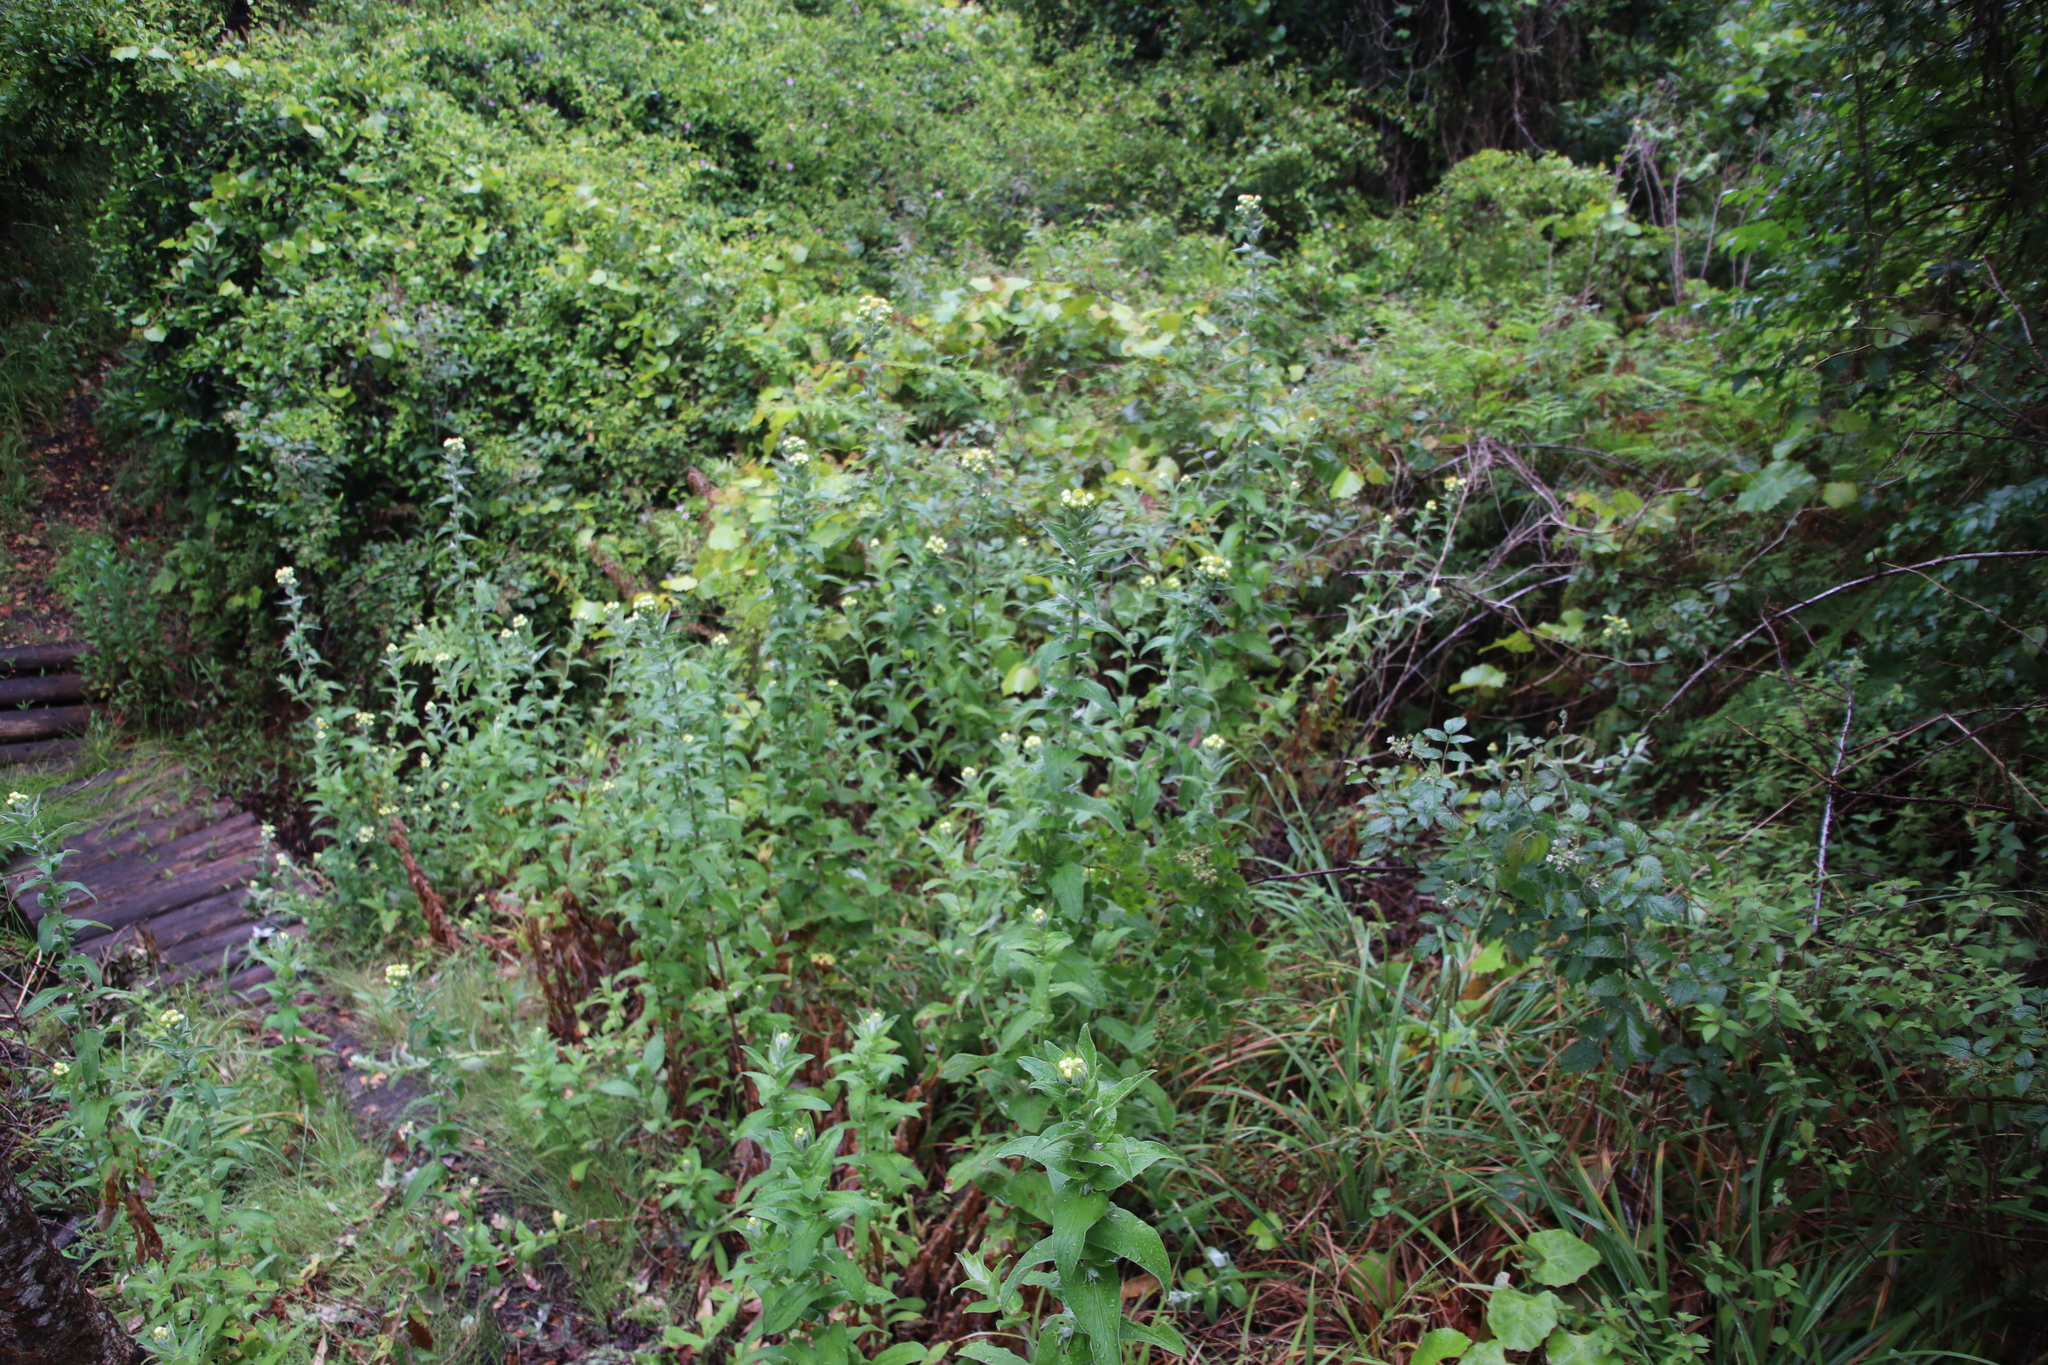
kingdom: Plantae
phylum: Tracheophyta
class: Magnoliopsida
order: Asterales
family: Asteraceae
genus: Helichrysum
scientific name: Helichrysum foetidum
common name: Stinking everlasting
